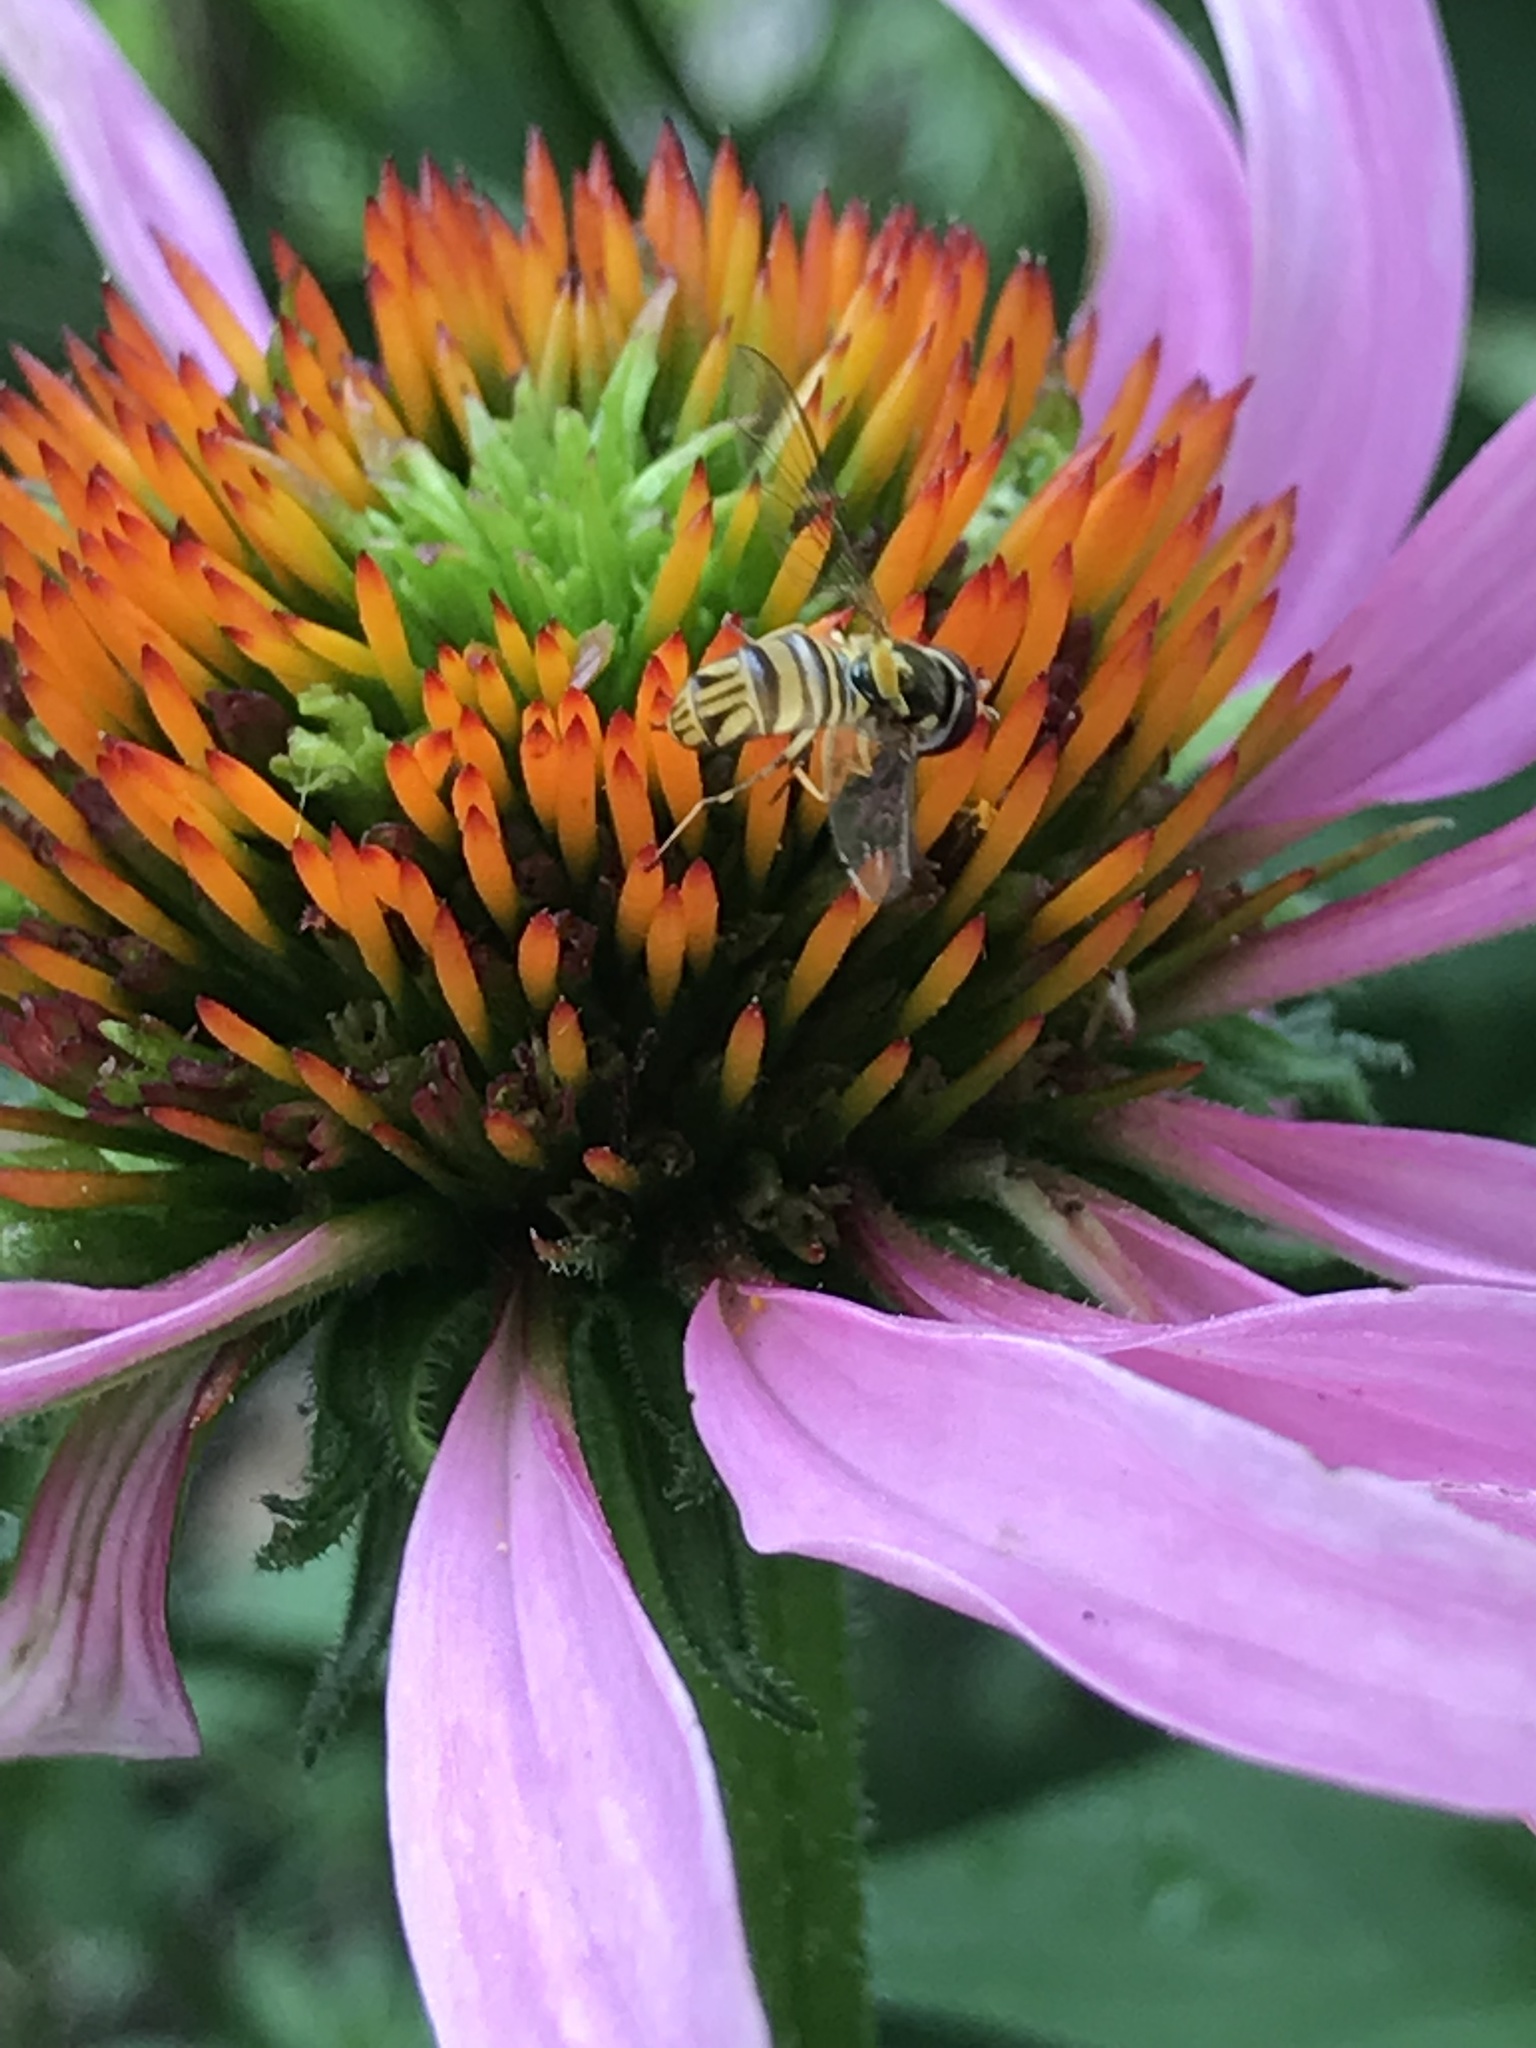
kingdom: Animalia
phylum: Arthropoda
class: Insecta
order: Diptera
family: Syrphidae
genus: Allograpta
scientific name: Allograpta obliqua
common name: Common oblique syrphid
